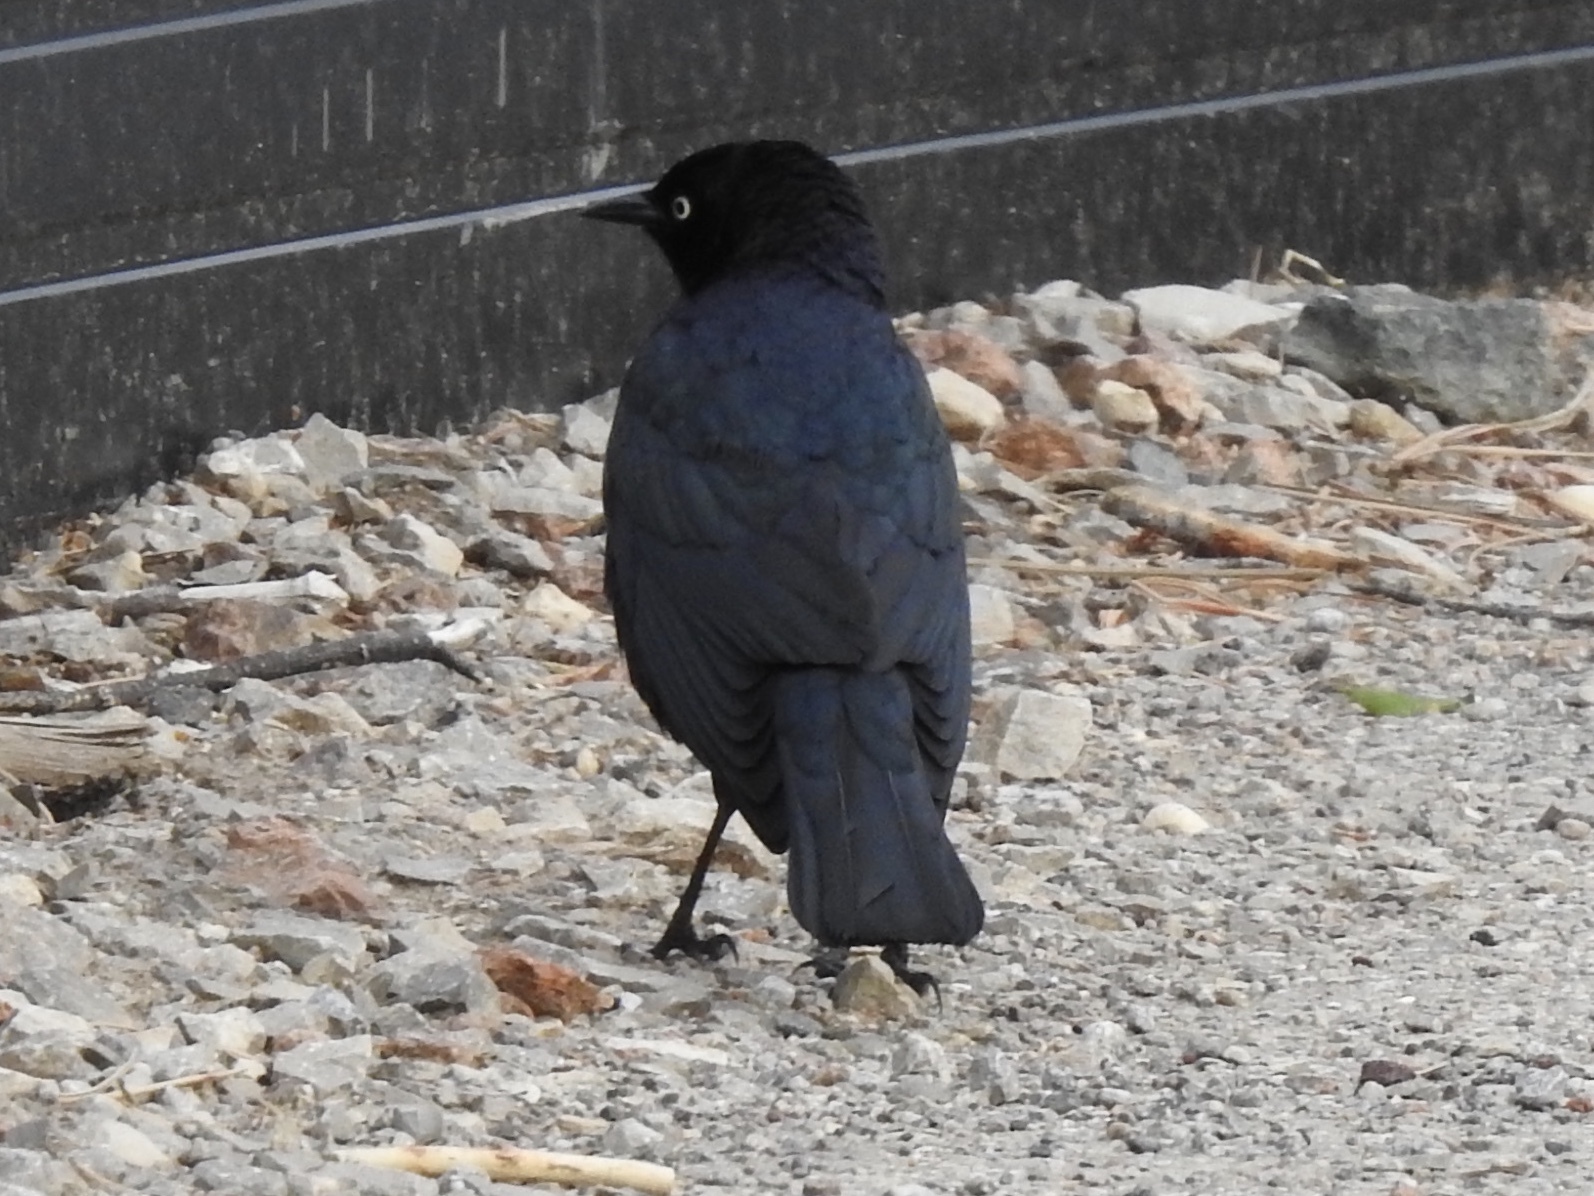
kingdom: Animalia
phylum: Chordata
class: Aves
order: Passeriformes
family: Icteridae
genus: Euphagus
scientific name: Euphagus cyanocephalus
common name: Brewer's blackbird
